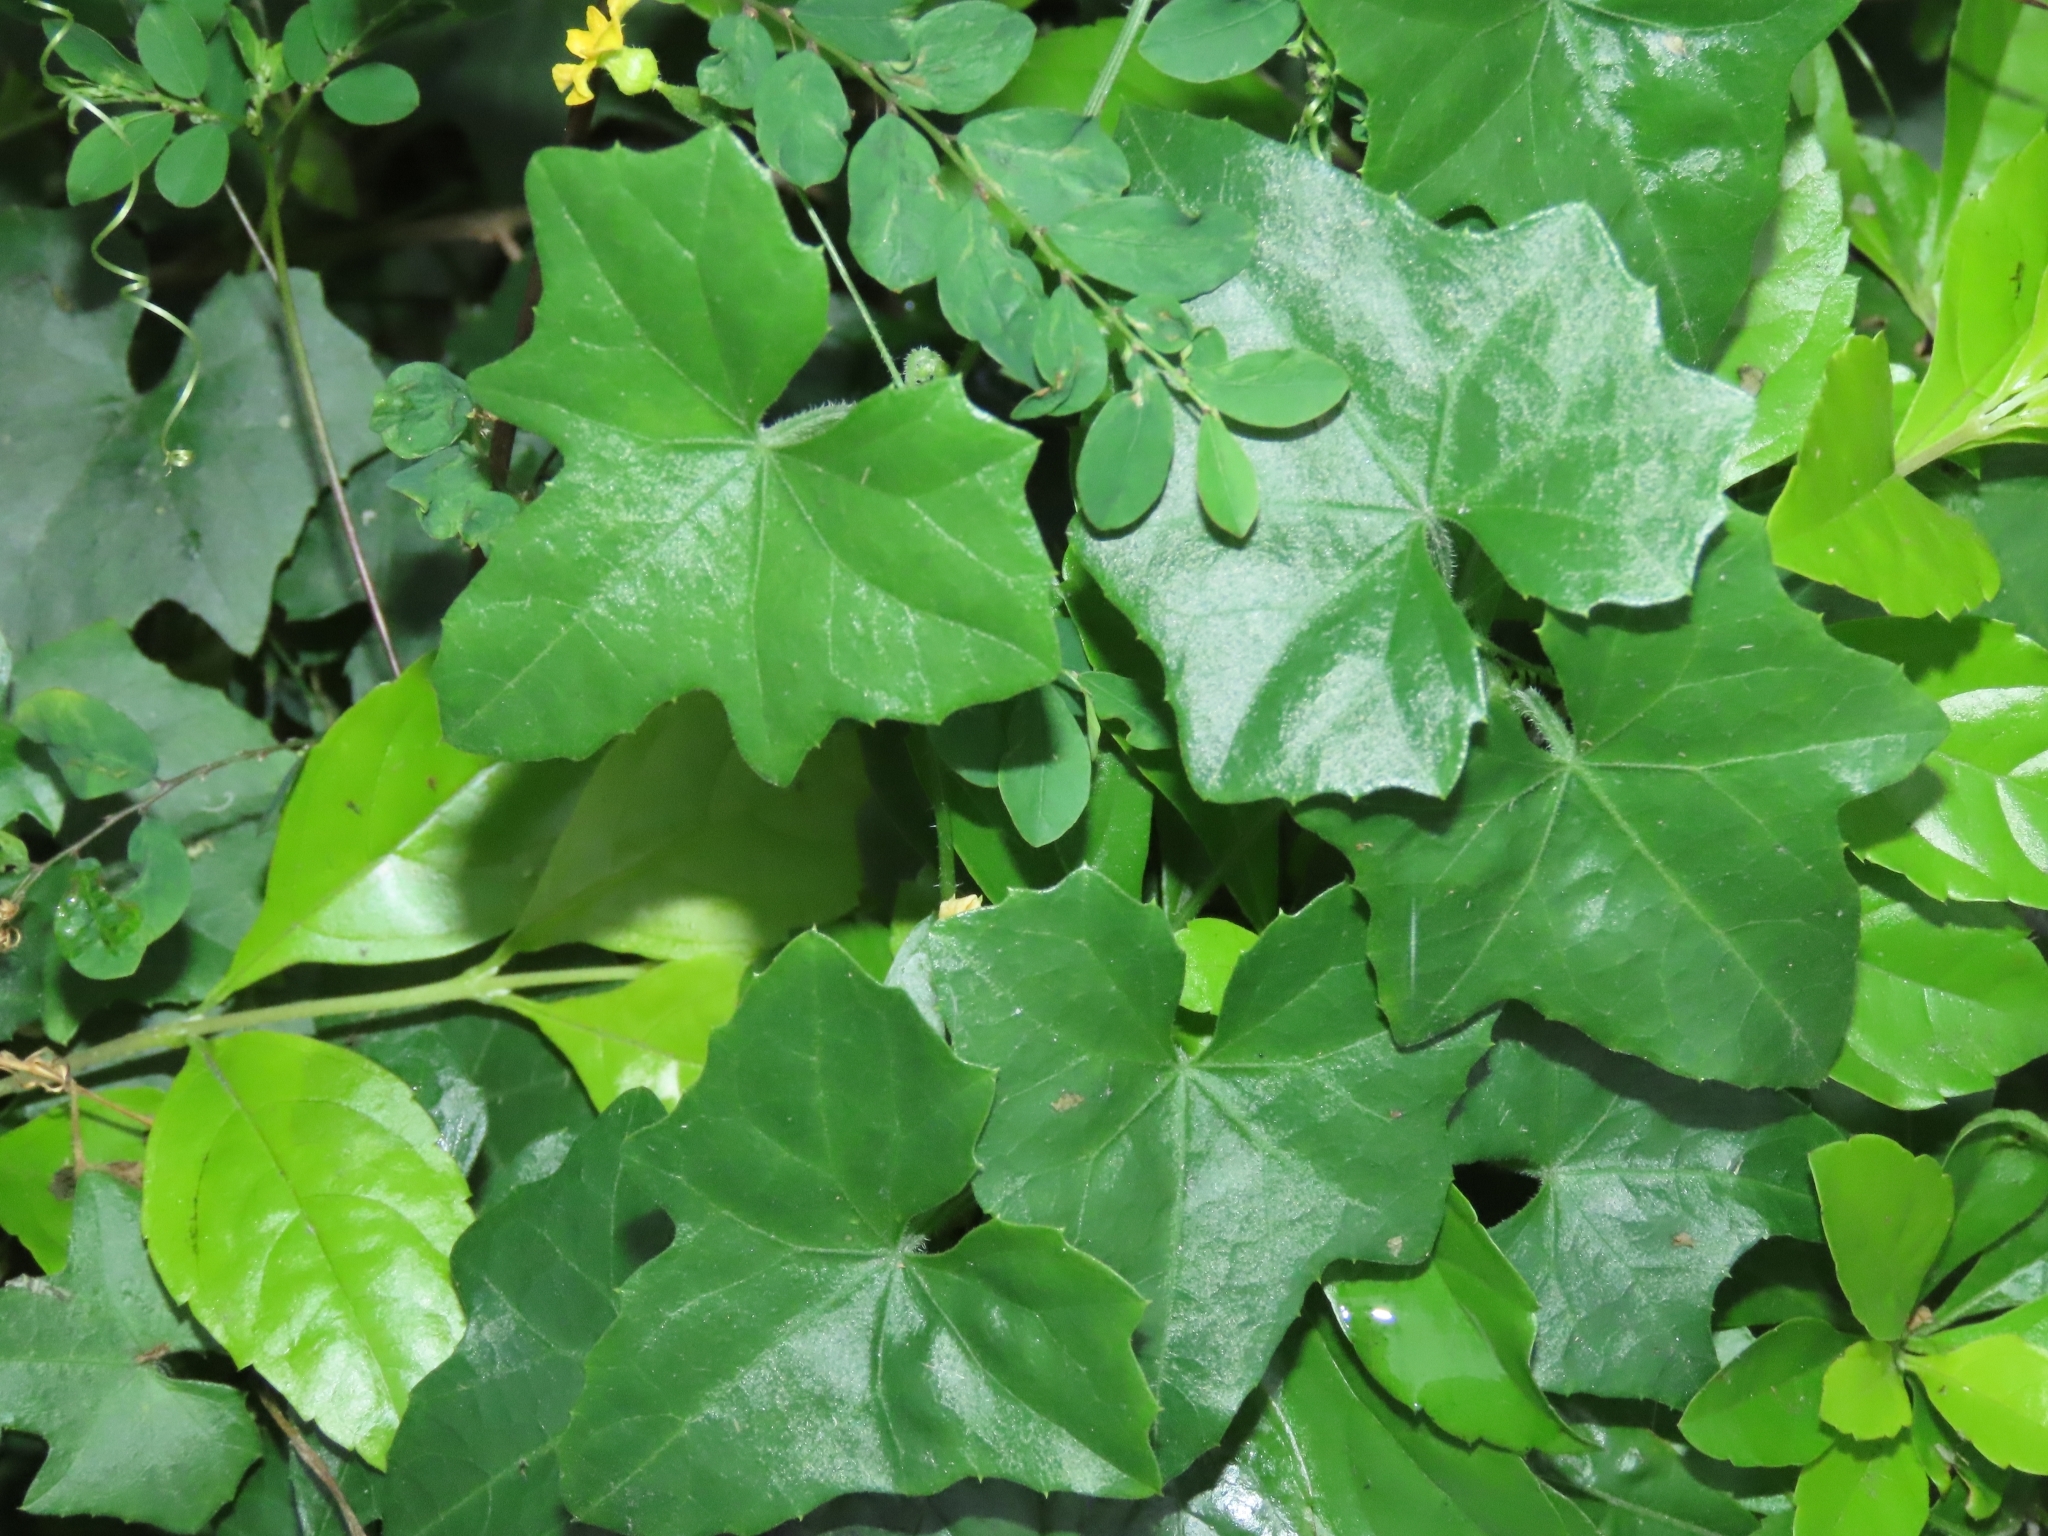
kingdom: Plantae
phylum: Tracheophyta
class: Magnoliopsida
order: Cucurbitales
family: Cucurbitaceae
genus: Melothria
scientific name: Melothria pendula
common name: Creeping-cucumber
